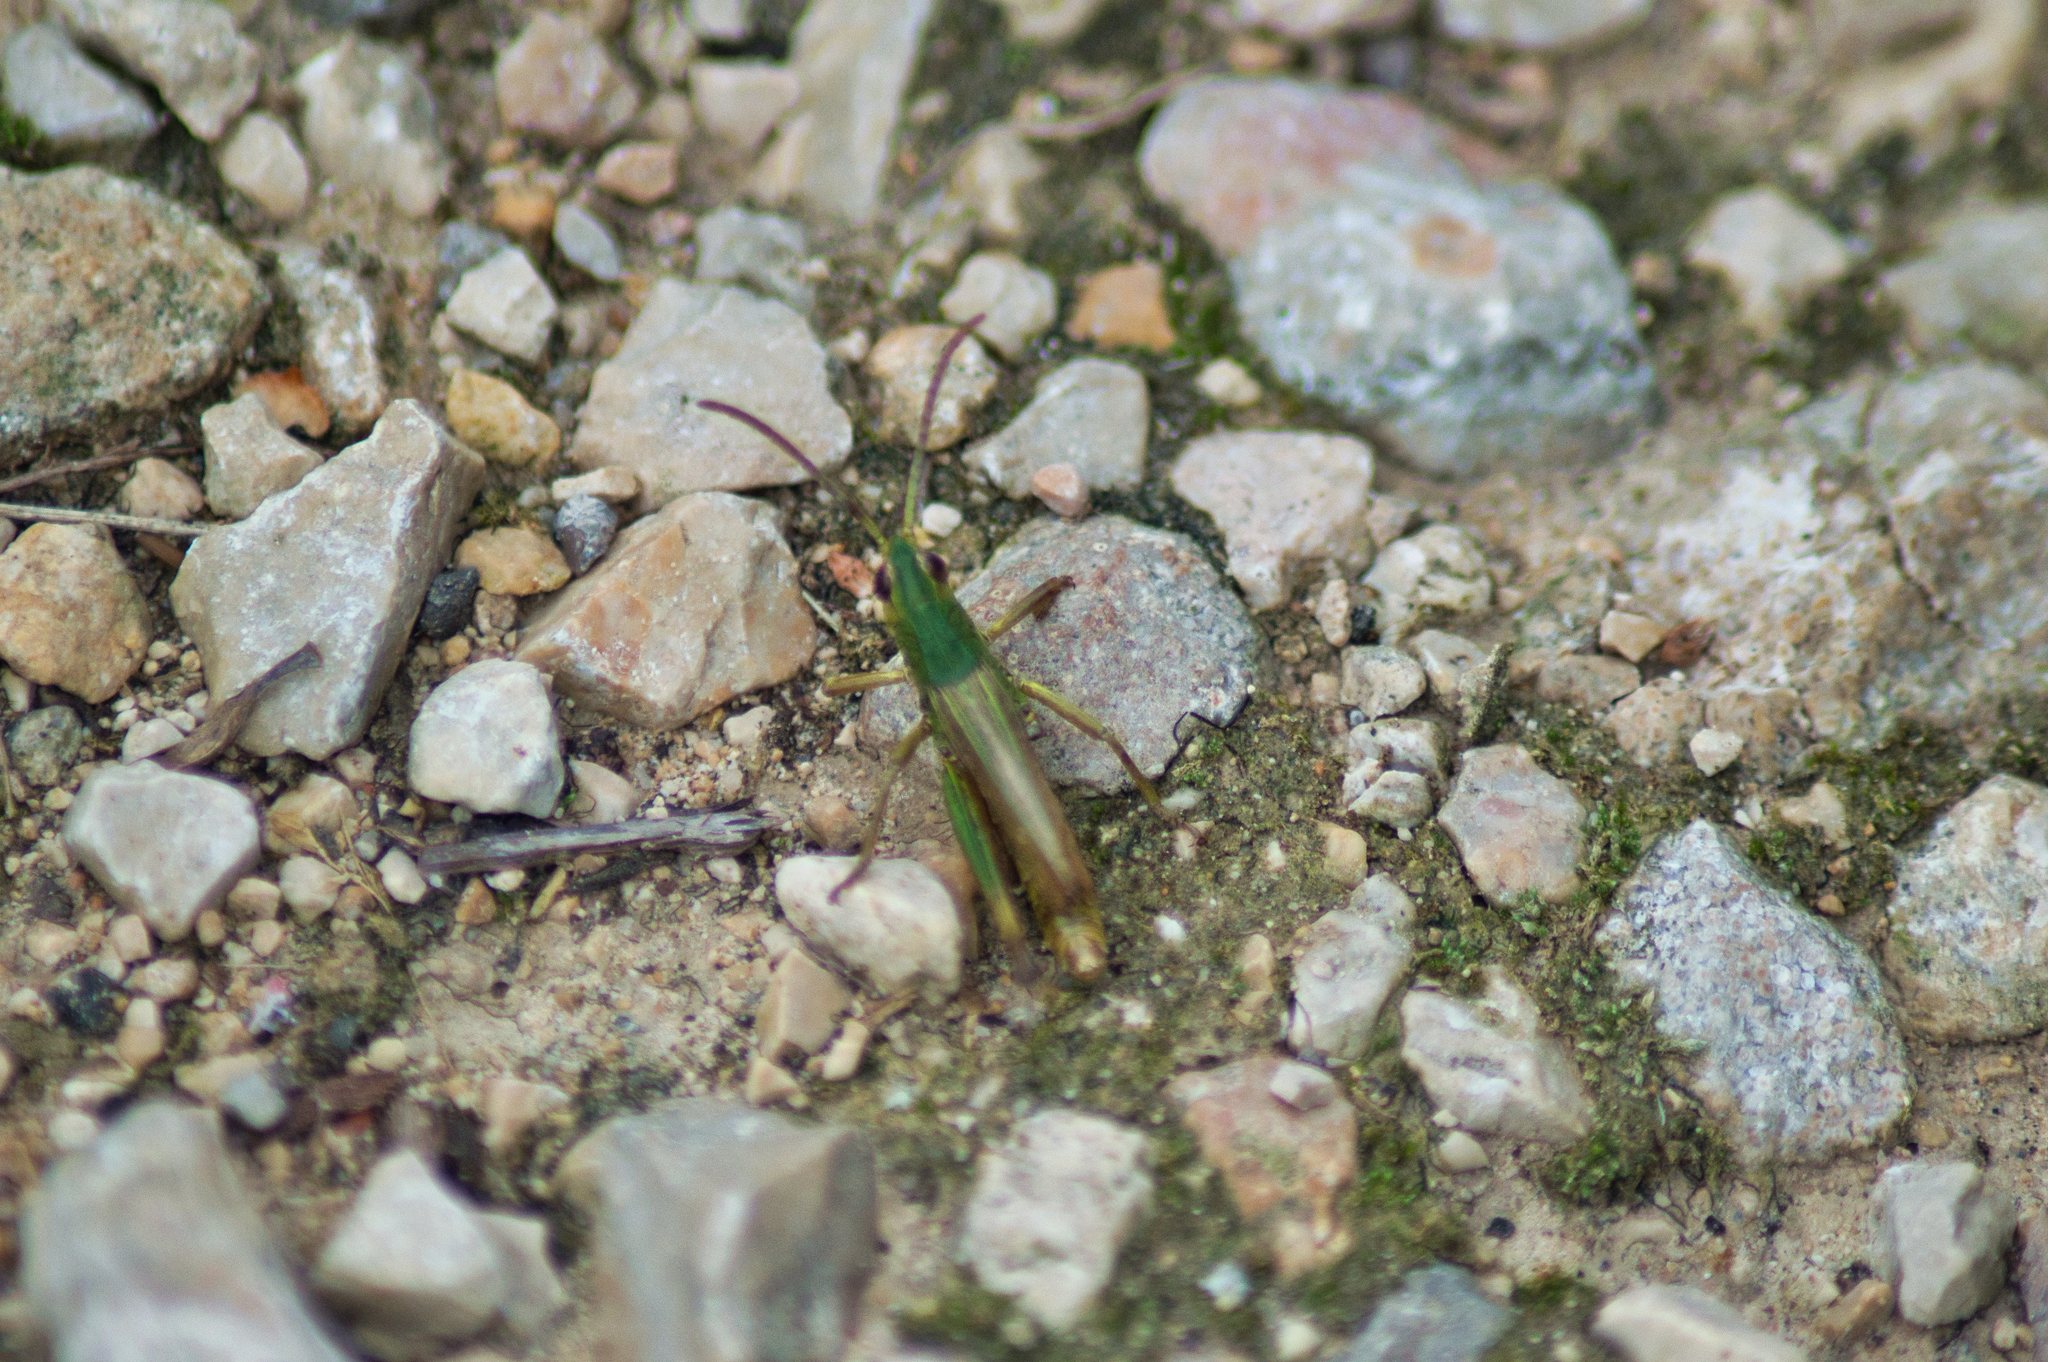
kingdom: Animalia
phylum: Arthropoda
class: Insecta
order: Orthoptera
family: Acrididae
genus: Pseudochorthippus
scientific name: Pseudochorthippus parallelus
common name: Meadow grasshopper
